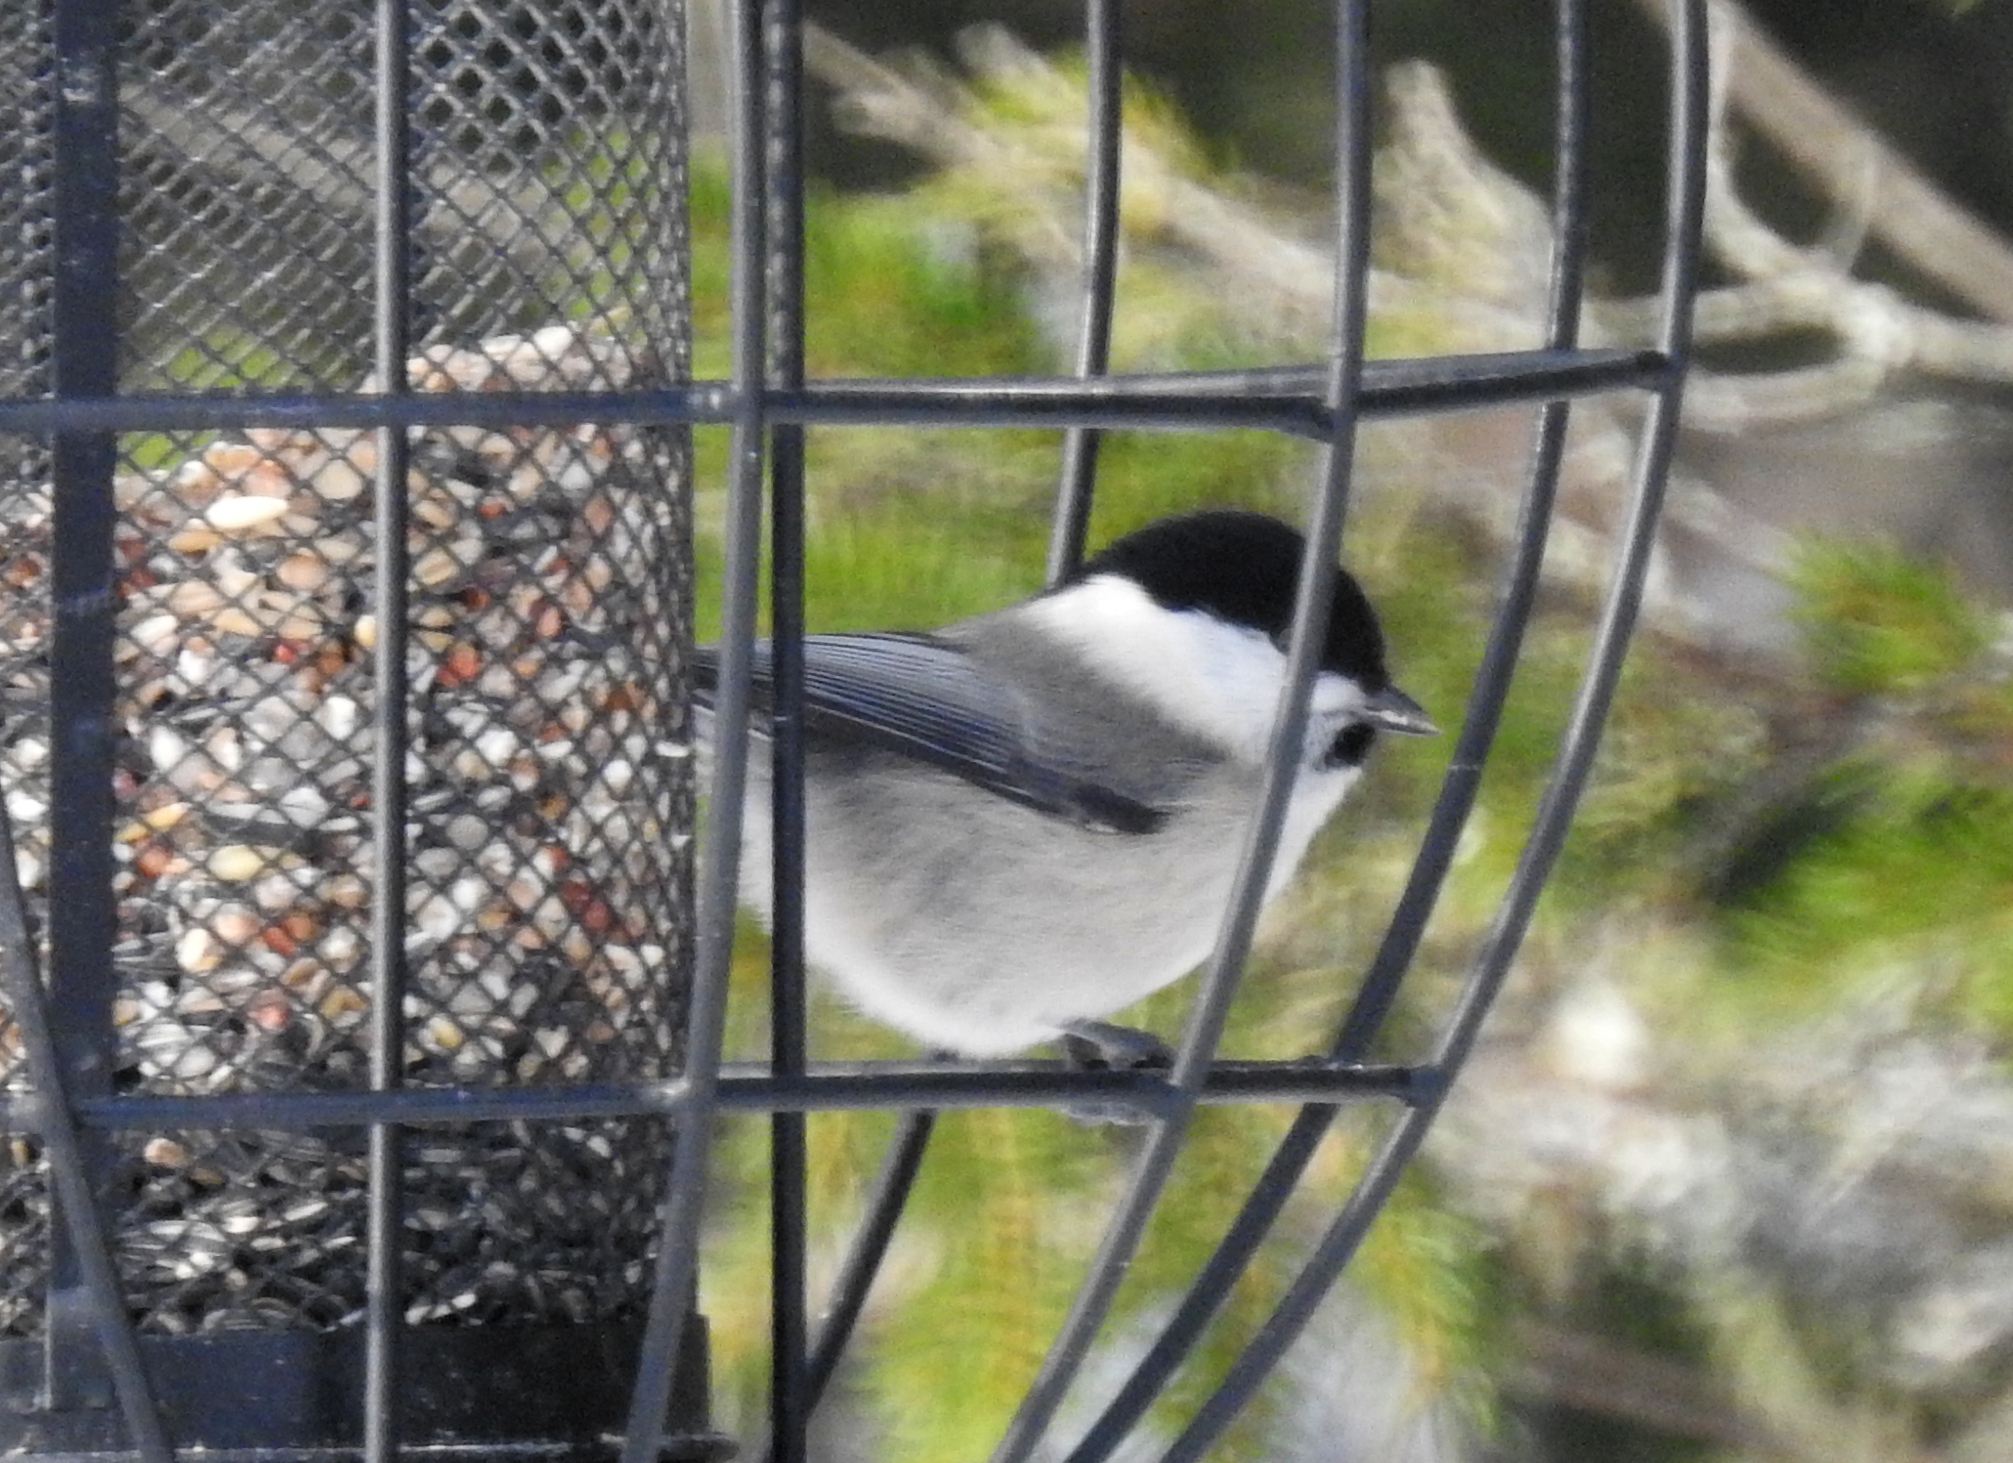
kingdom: Animalia
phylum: Chordata
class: Aves
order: Passeriformes
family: Paridae
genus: Poecile
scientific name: Poecile montanus
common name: Willow tit
